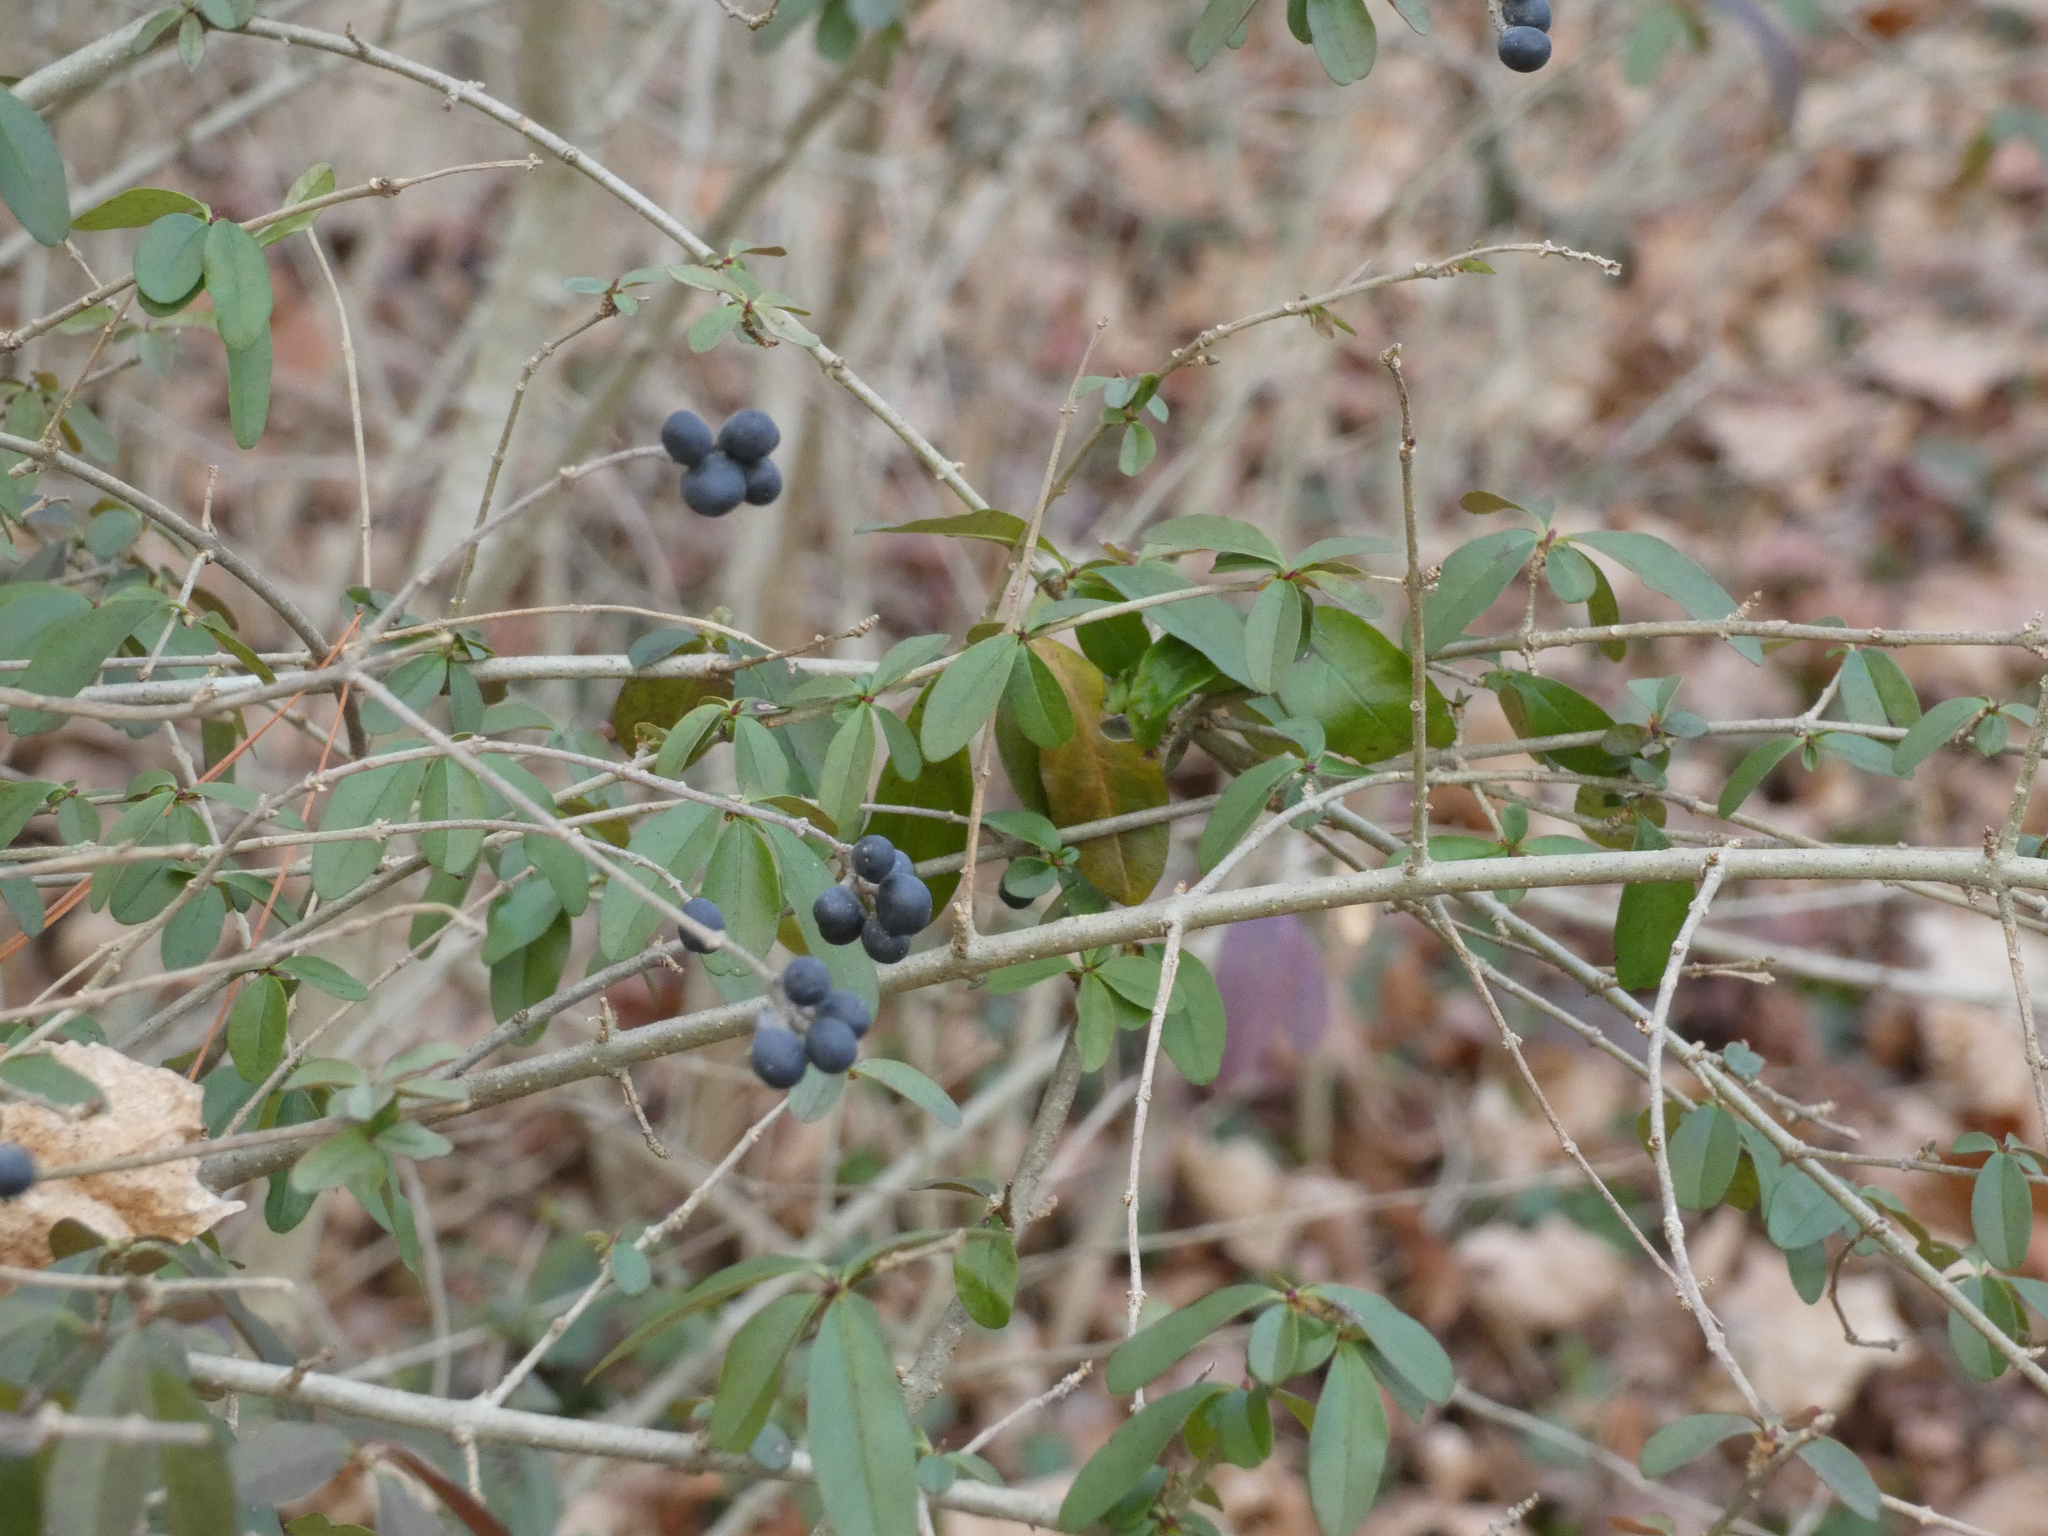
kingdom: Plantae
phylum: Tracheophyta
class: Magnoliopsida
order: Lamiales
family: Oleaceae
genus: Ligustrum
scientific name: Ligustrum obtusifolium
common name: Border privet
